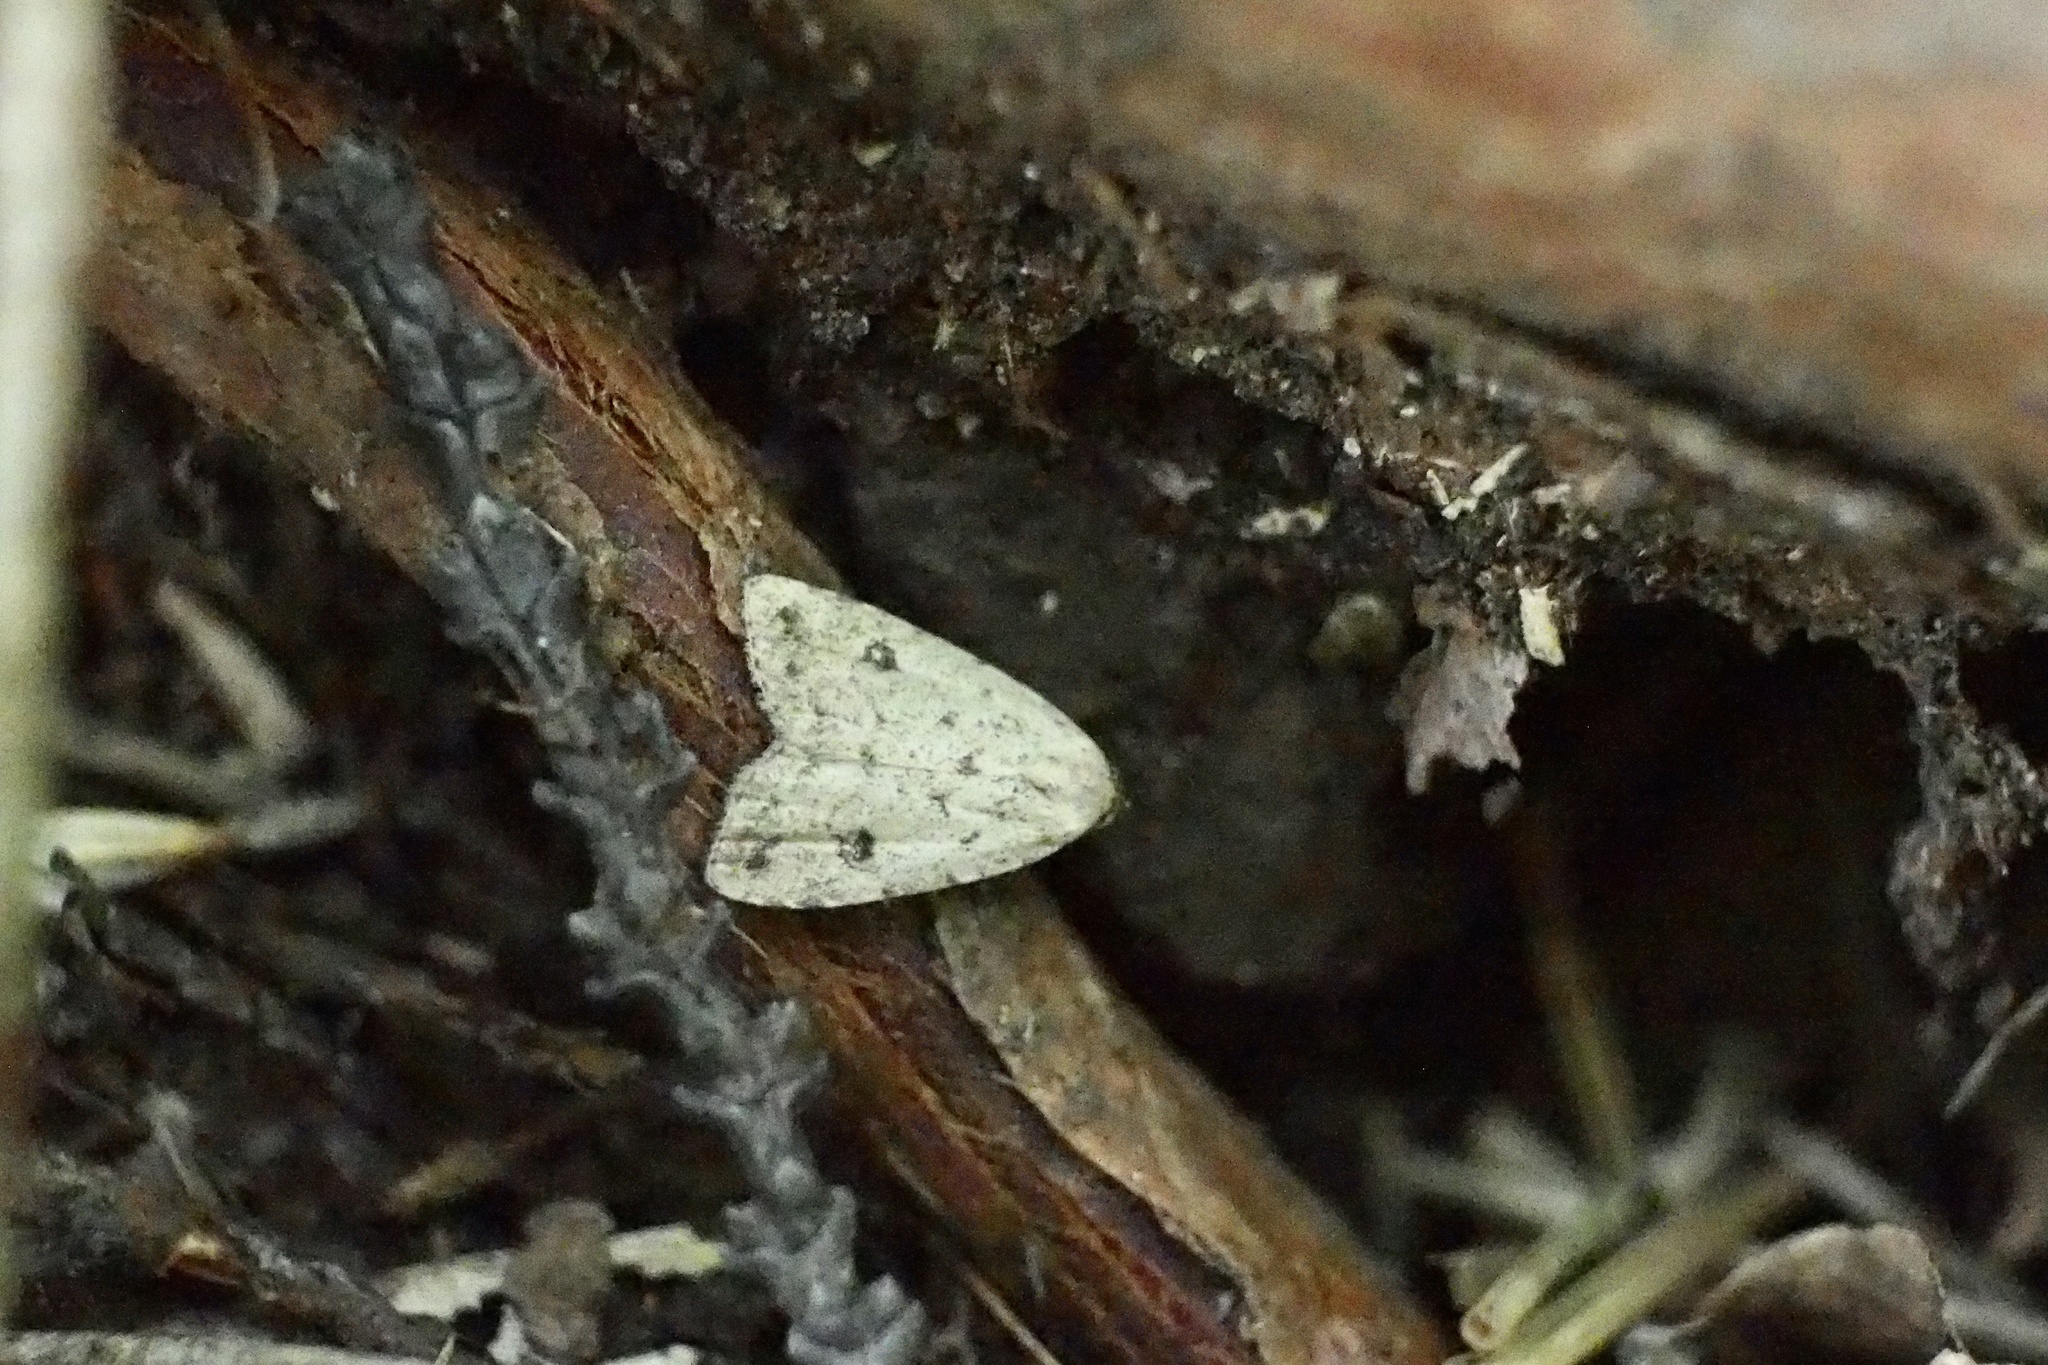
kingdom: Animalia
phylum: Arthropoda
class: Insecta
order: Lepidoptera
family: Erebidae
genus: Anachrostis
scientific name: Anachrostis
